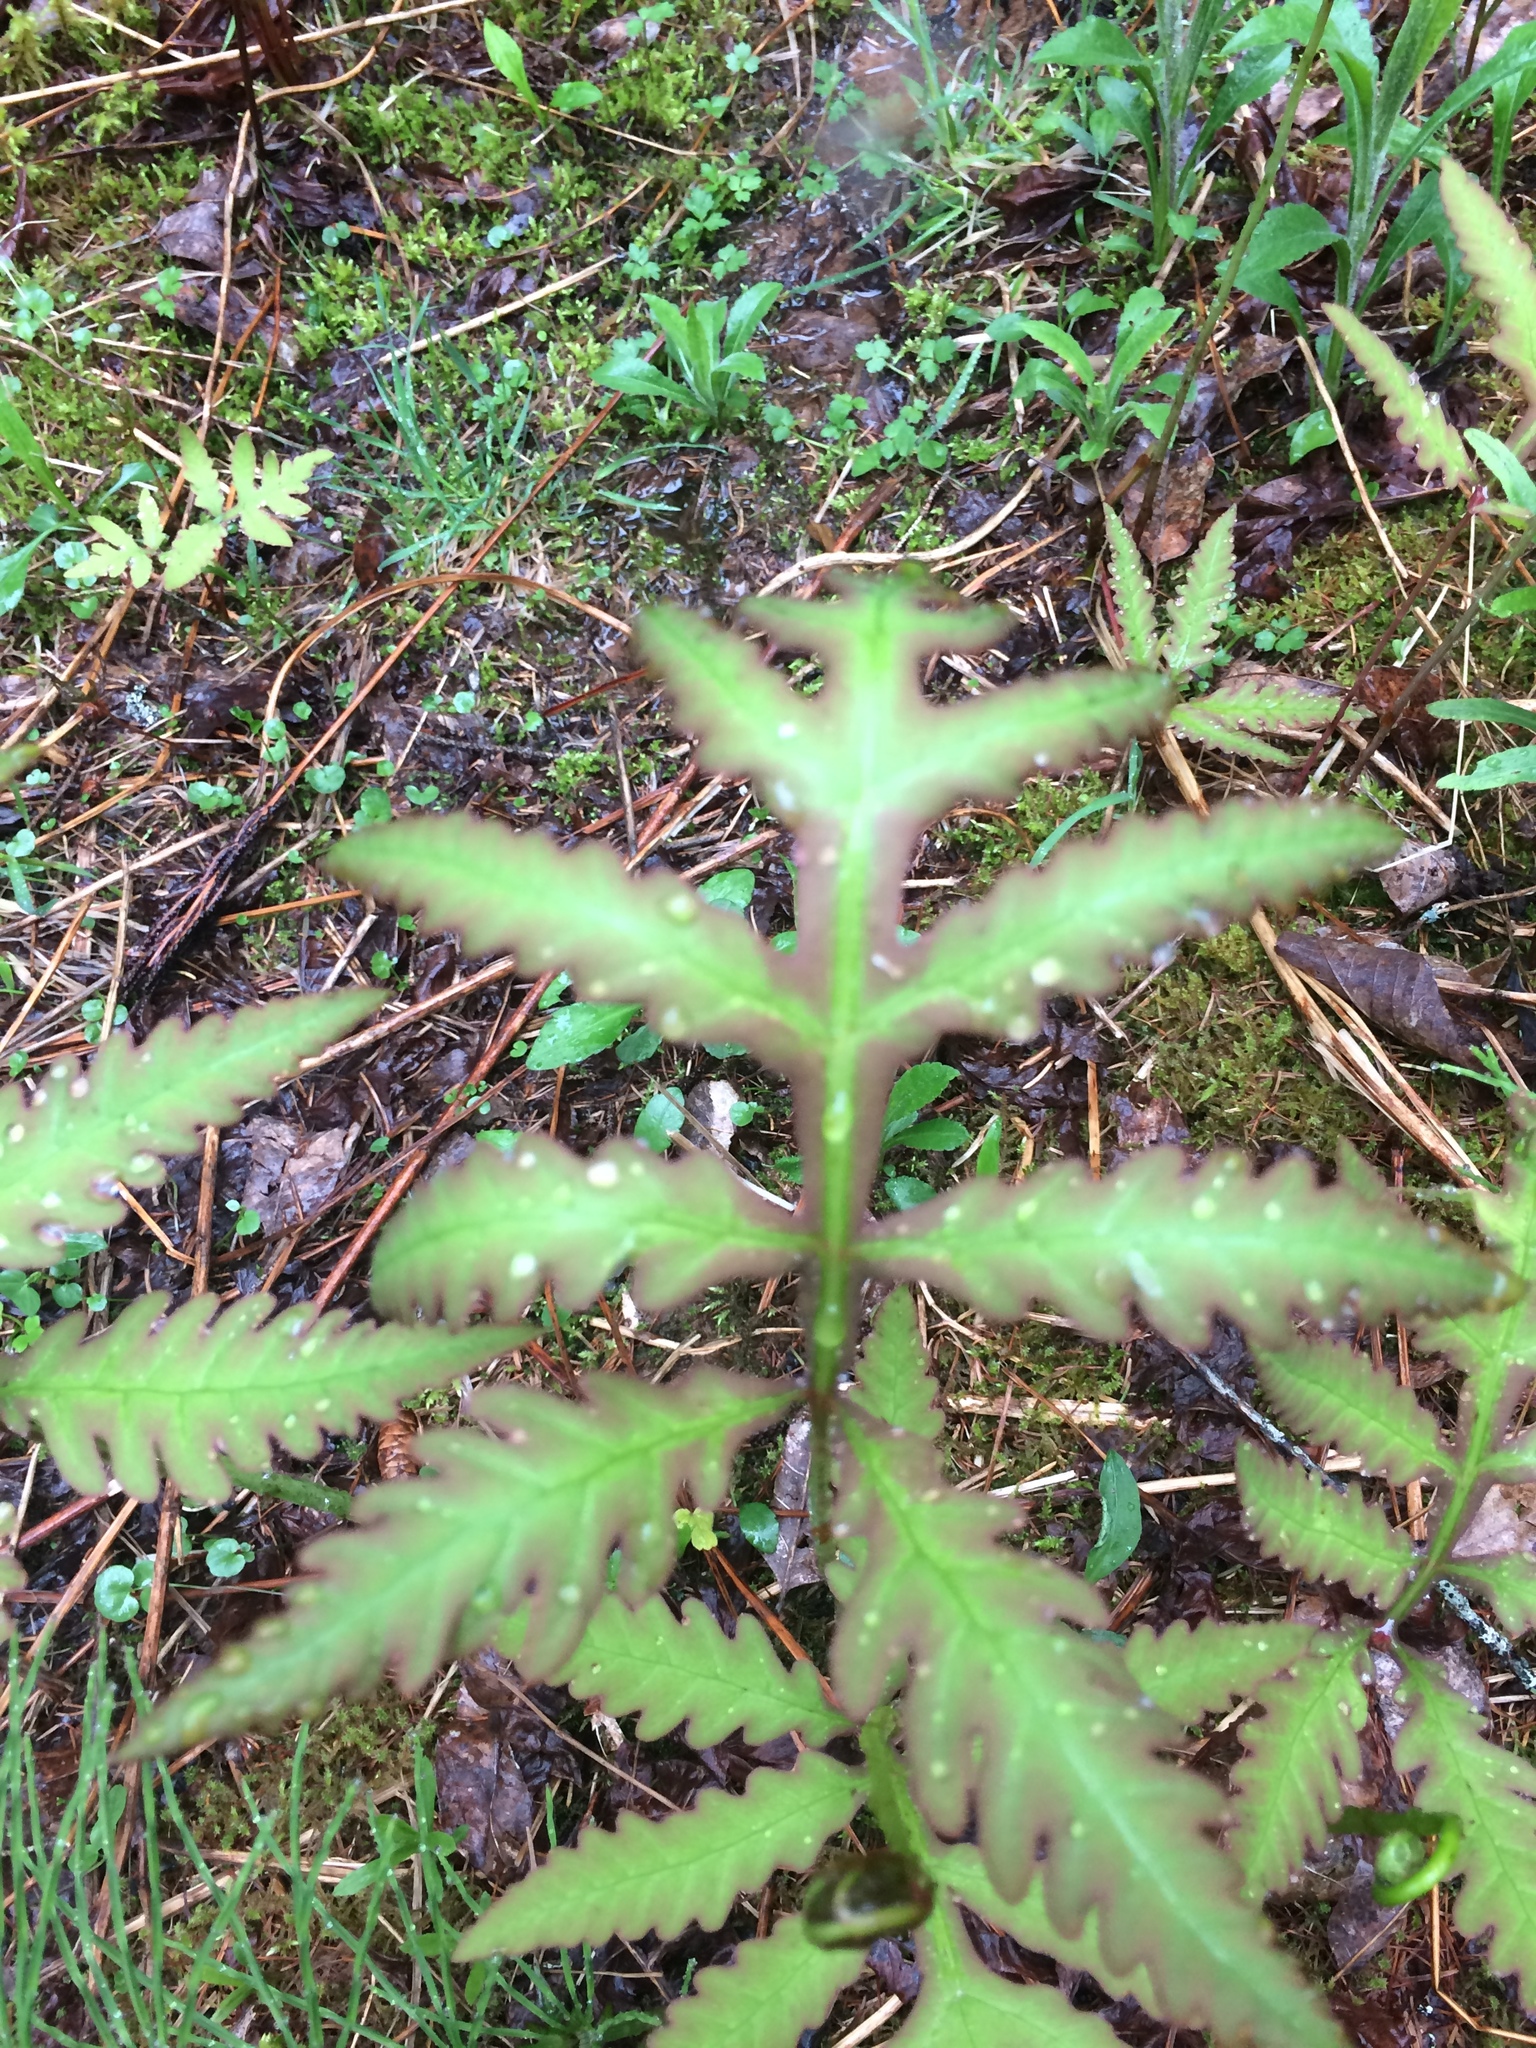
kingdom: Plantae
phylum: Tracheophyta
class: Polypodiopsida
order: Polypodiales
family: Onocleaceae
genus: Onoclea
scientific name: Onoclea sensibilis
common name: Sensitive fern
